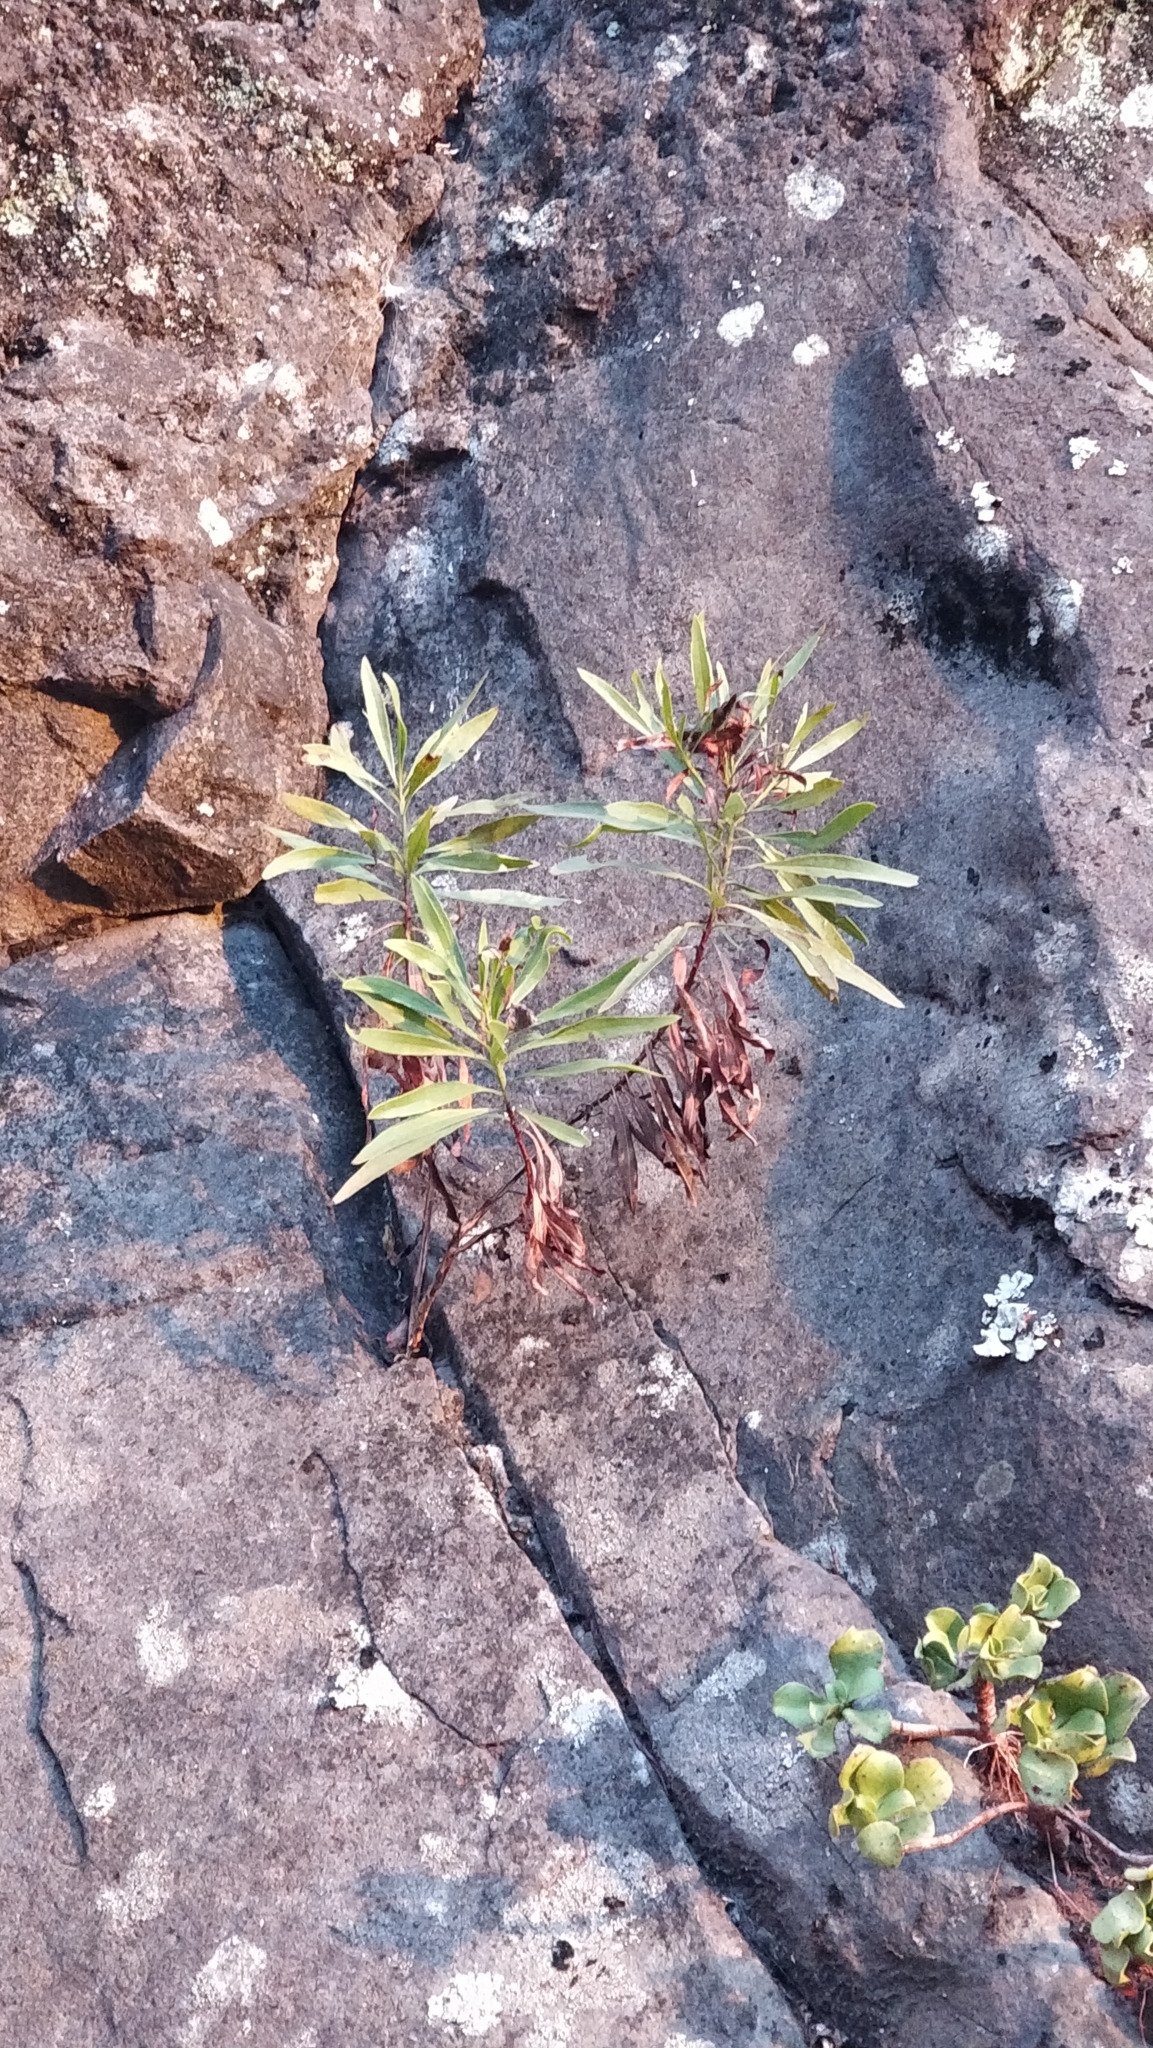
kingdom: Plantae
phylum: Tracheophyta
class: Magnoliopsida
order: Lamiales
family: Plantaginaceae
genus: Globularia
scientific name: Globularia salicina
